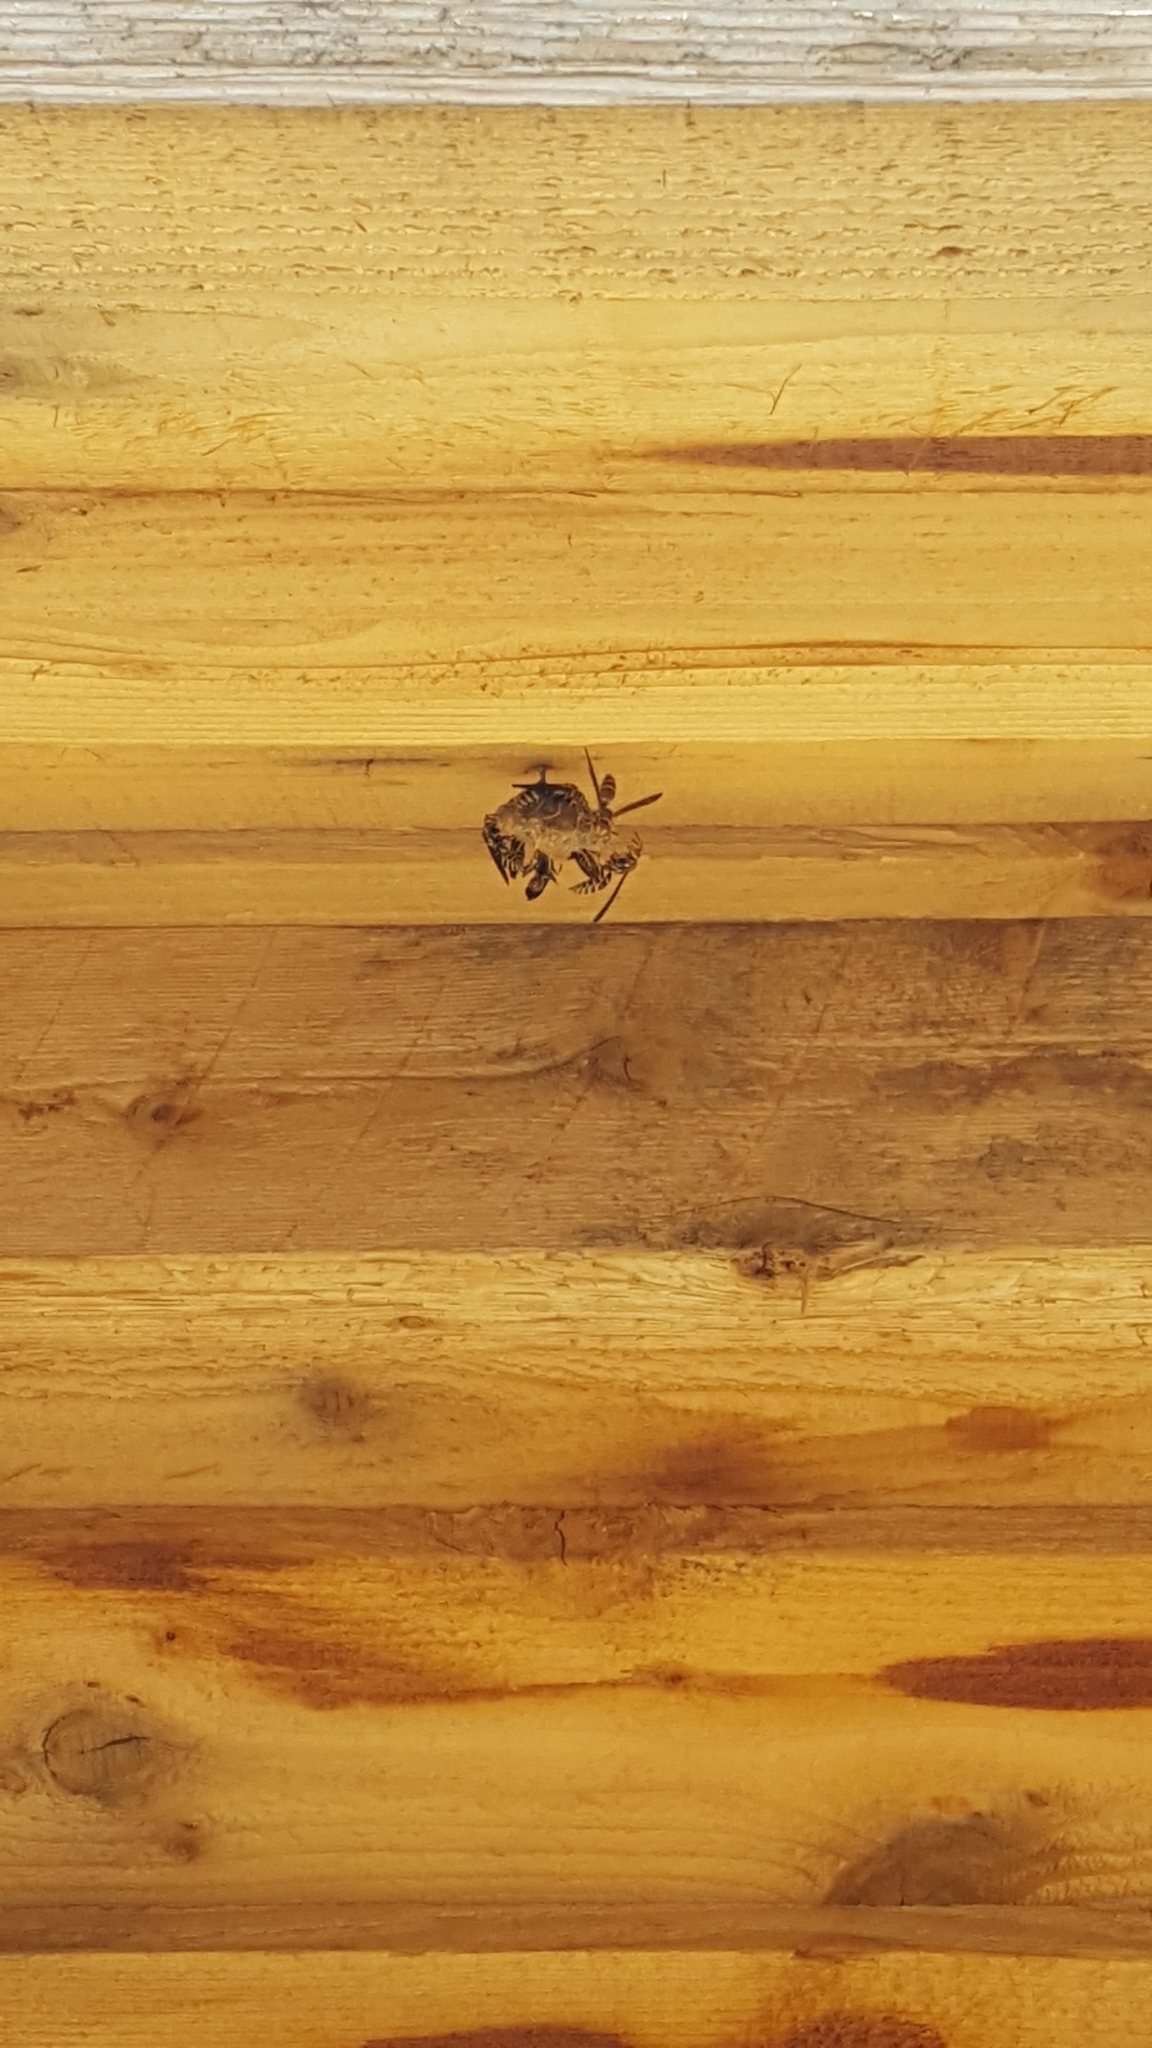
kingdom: Animalia
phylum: Arthropoda
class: Insecta
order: Hymenoptera
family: Eumenidae
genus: Polistes
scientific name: Polistes exclamans
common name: Paper wasp
